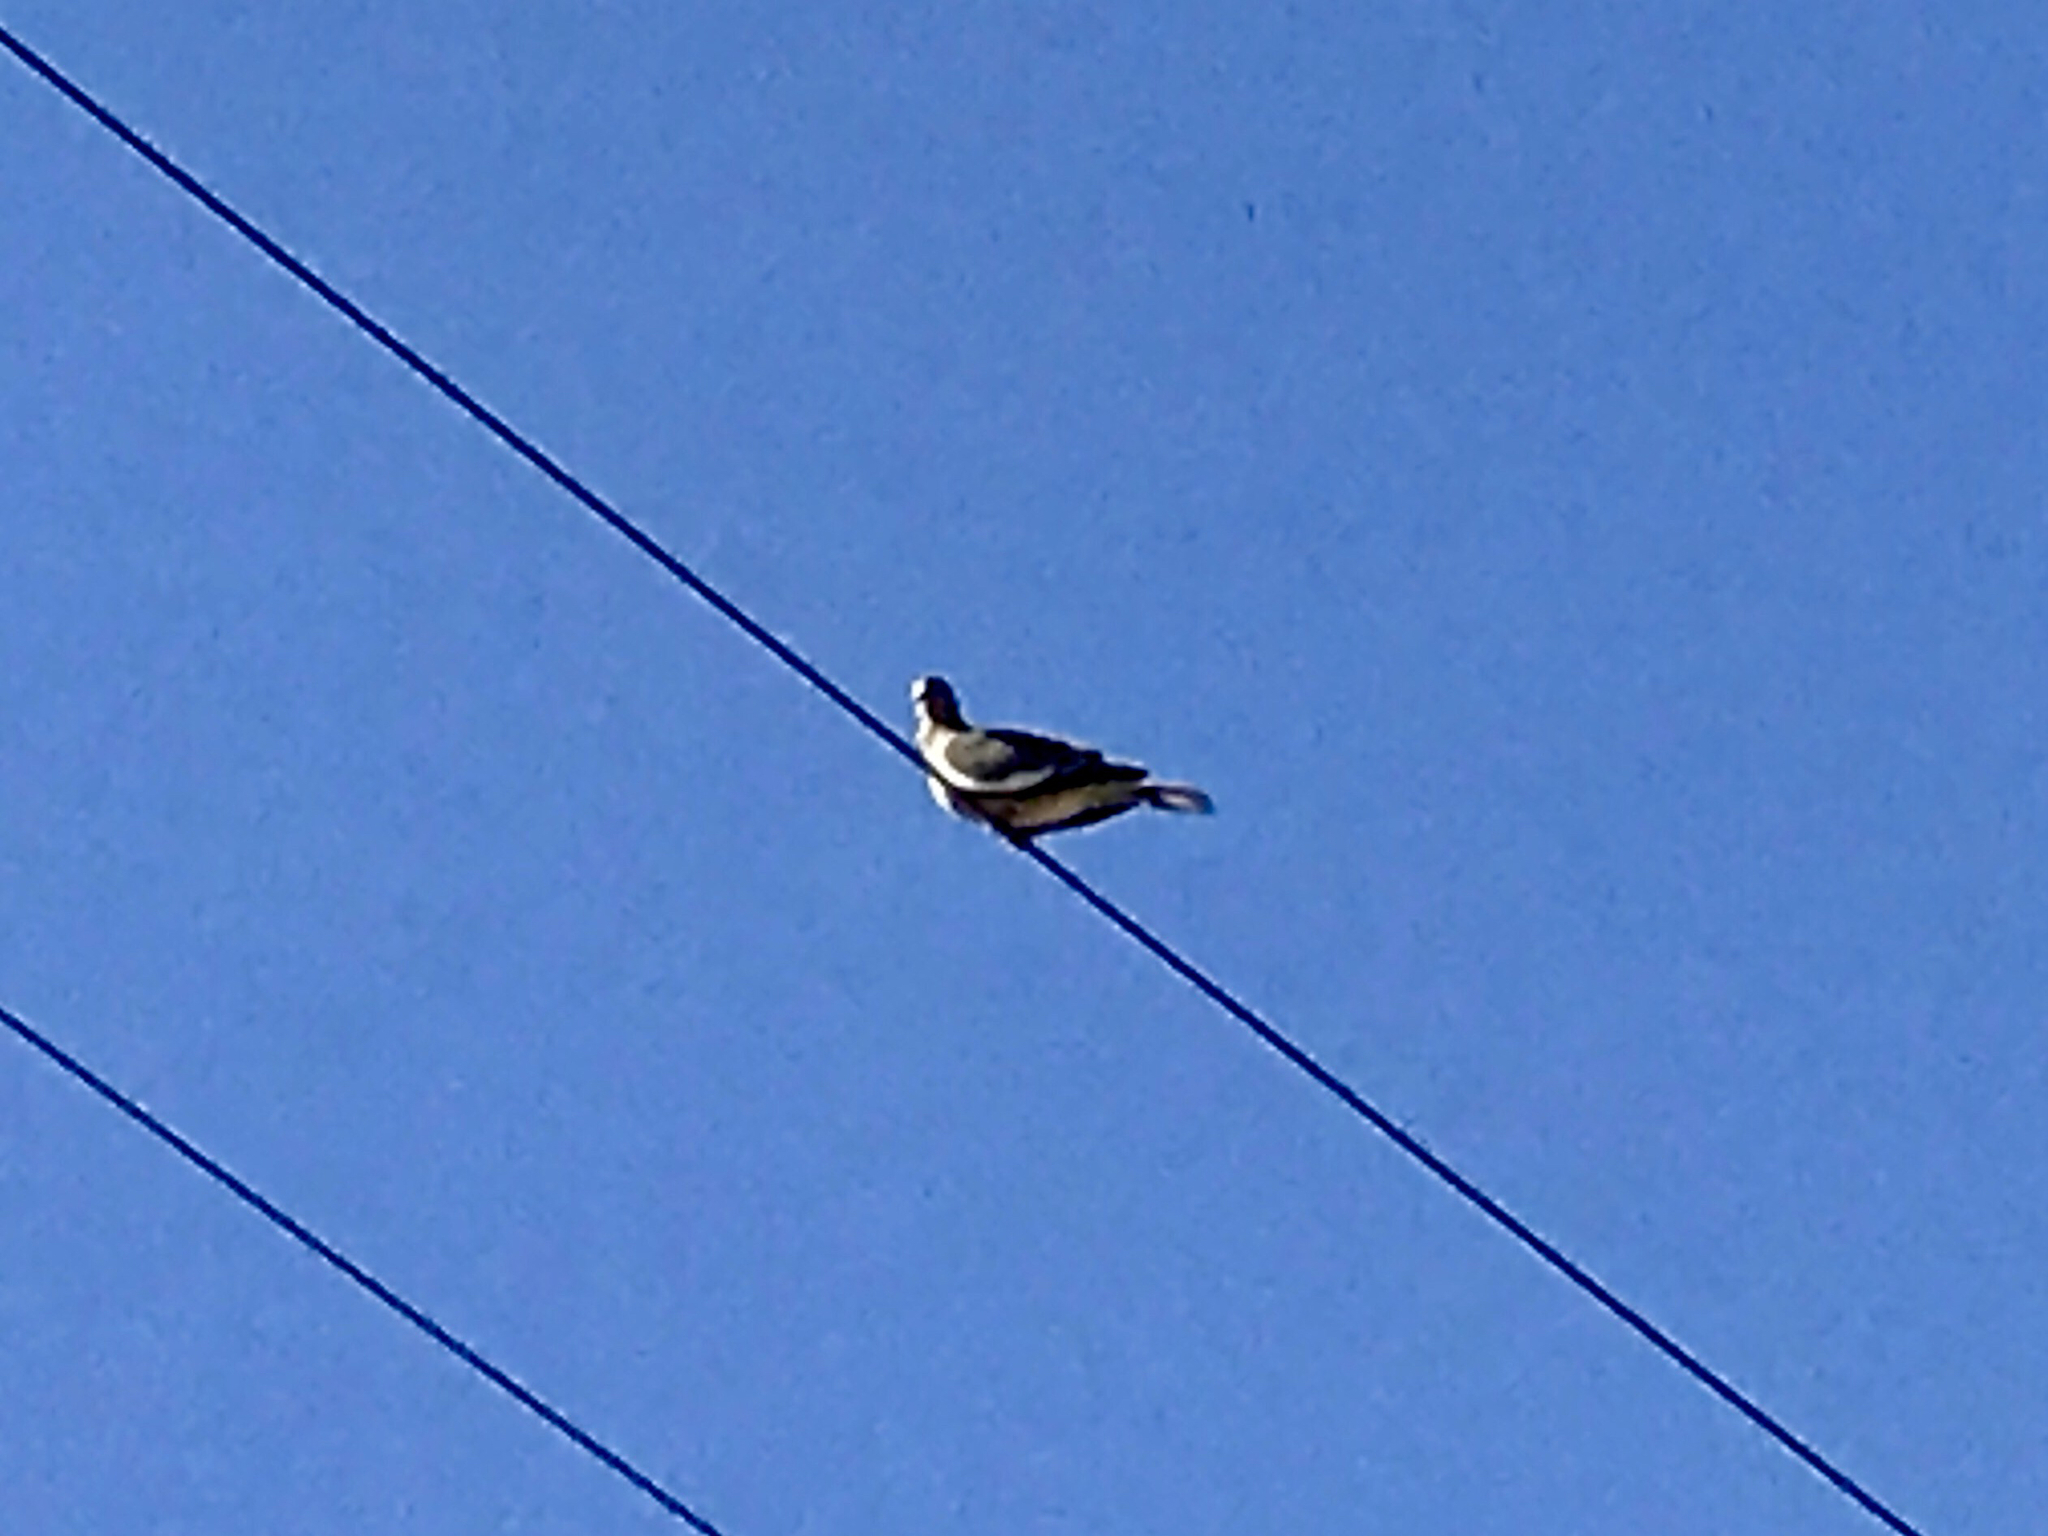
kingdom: Animalia
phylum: Chordata
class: Aves
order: Columbiformes
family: Columbidae
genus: Zenaida
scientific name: Zenaida asiatica
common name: White-winged dove
